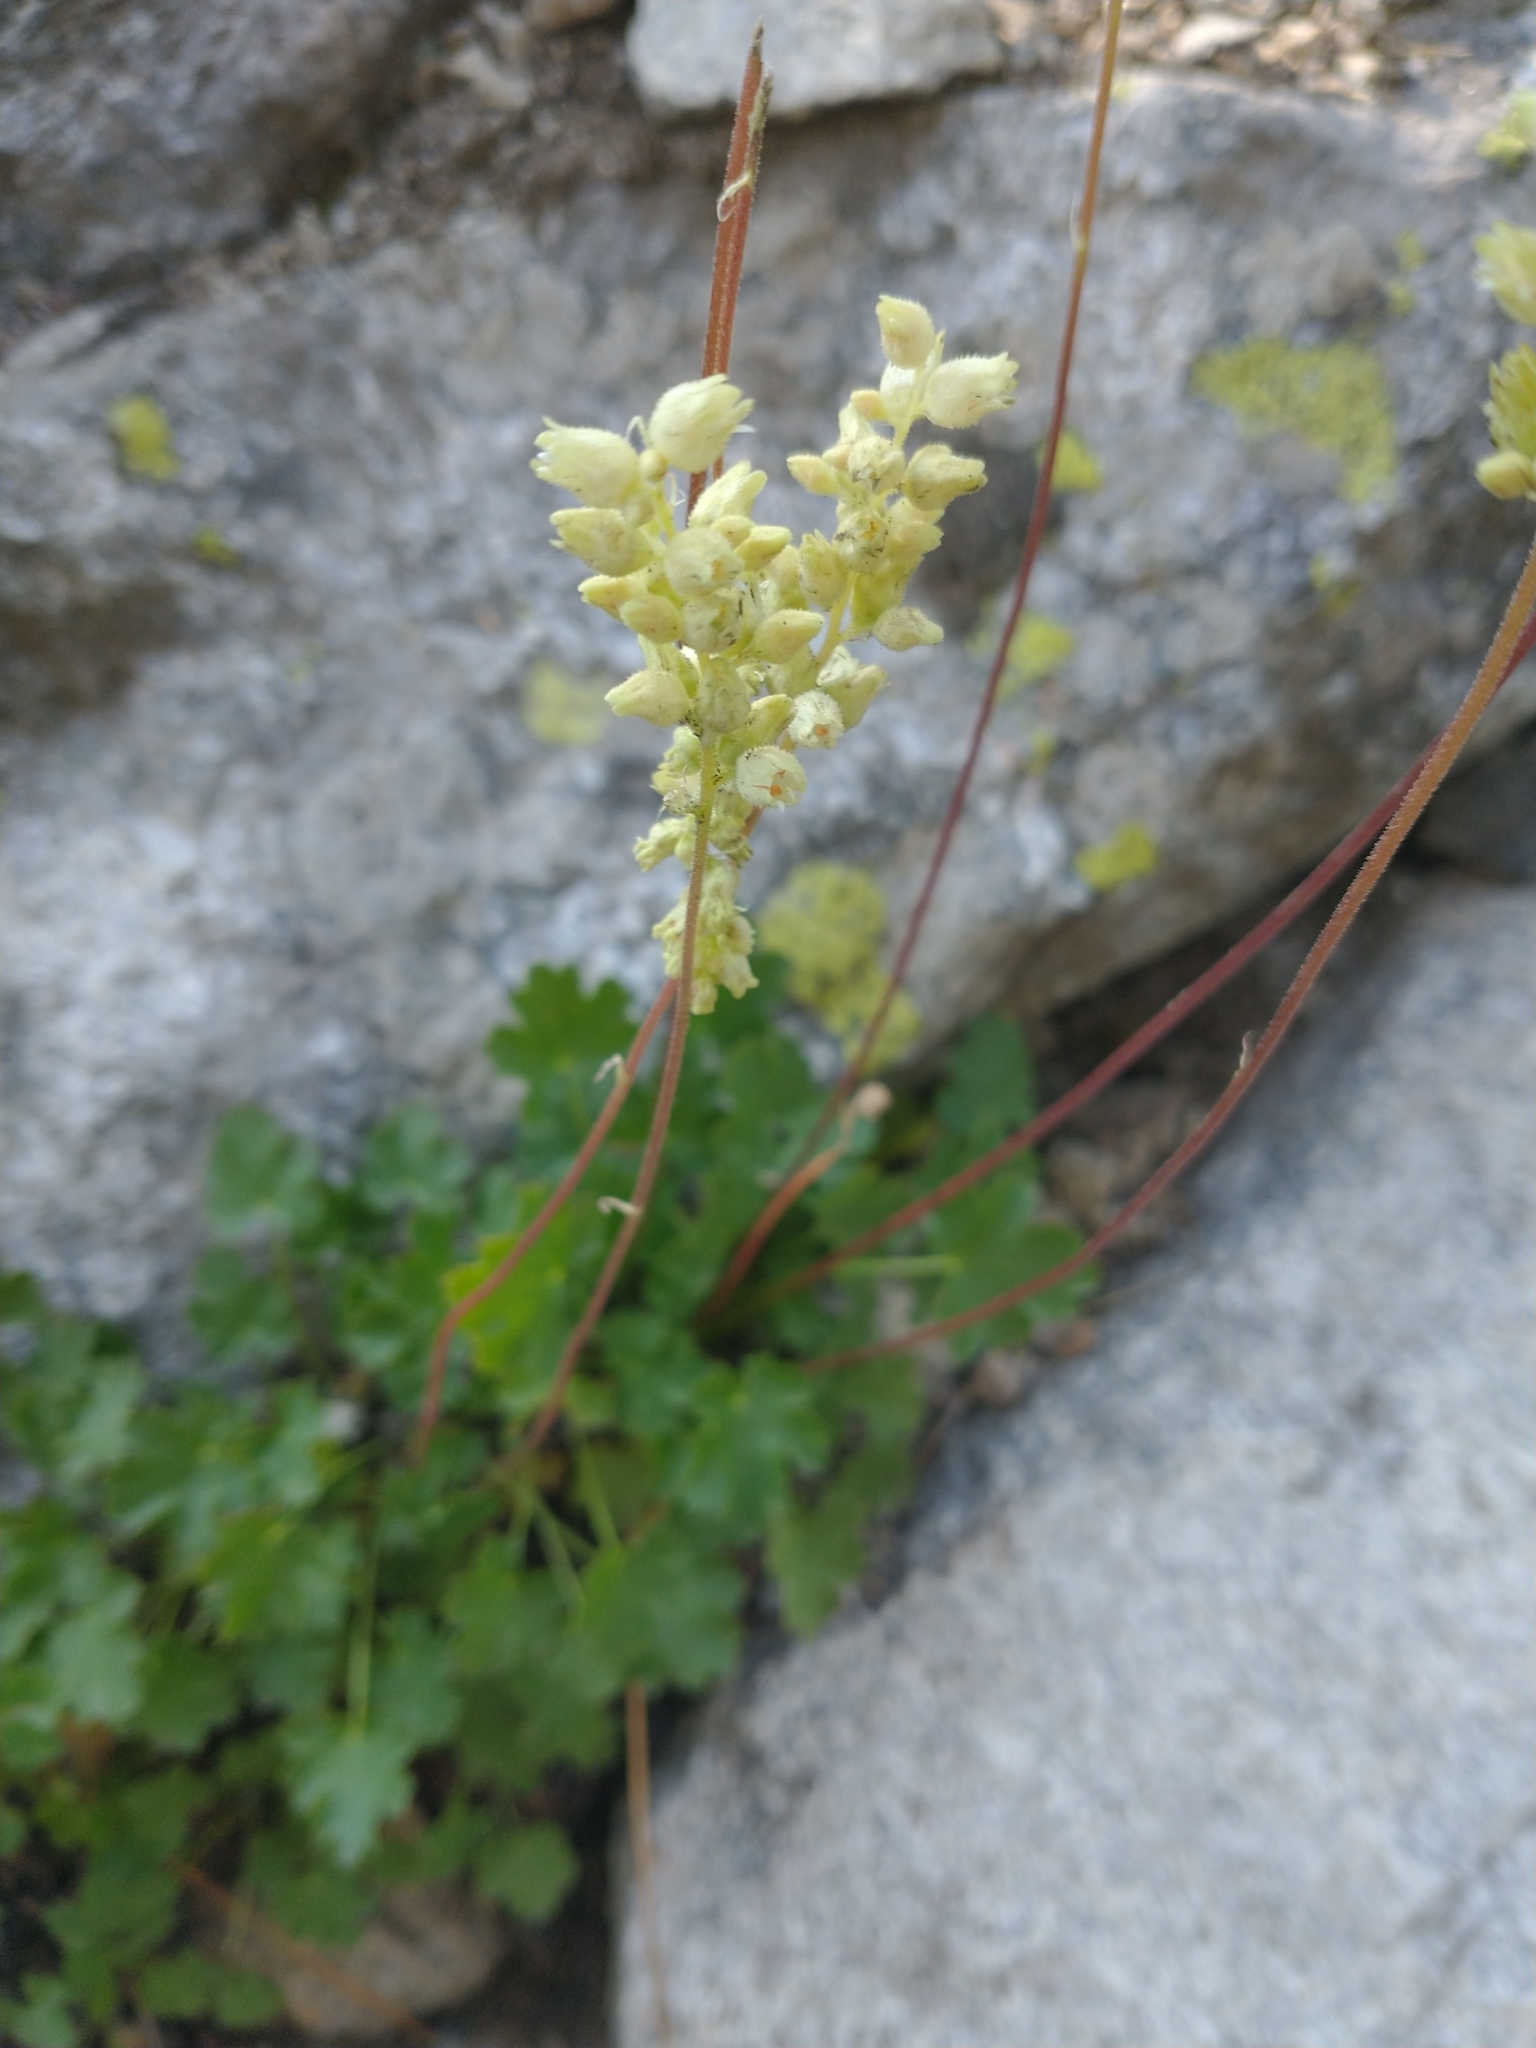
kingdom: Plantae
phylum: Tracheophyta
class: Magnoliopsida
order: Saxifragales
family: Saxifragaceae
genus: Heuchera
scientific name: Heuchera grossulariifolia
